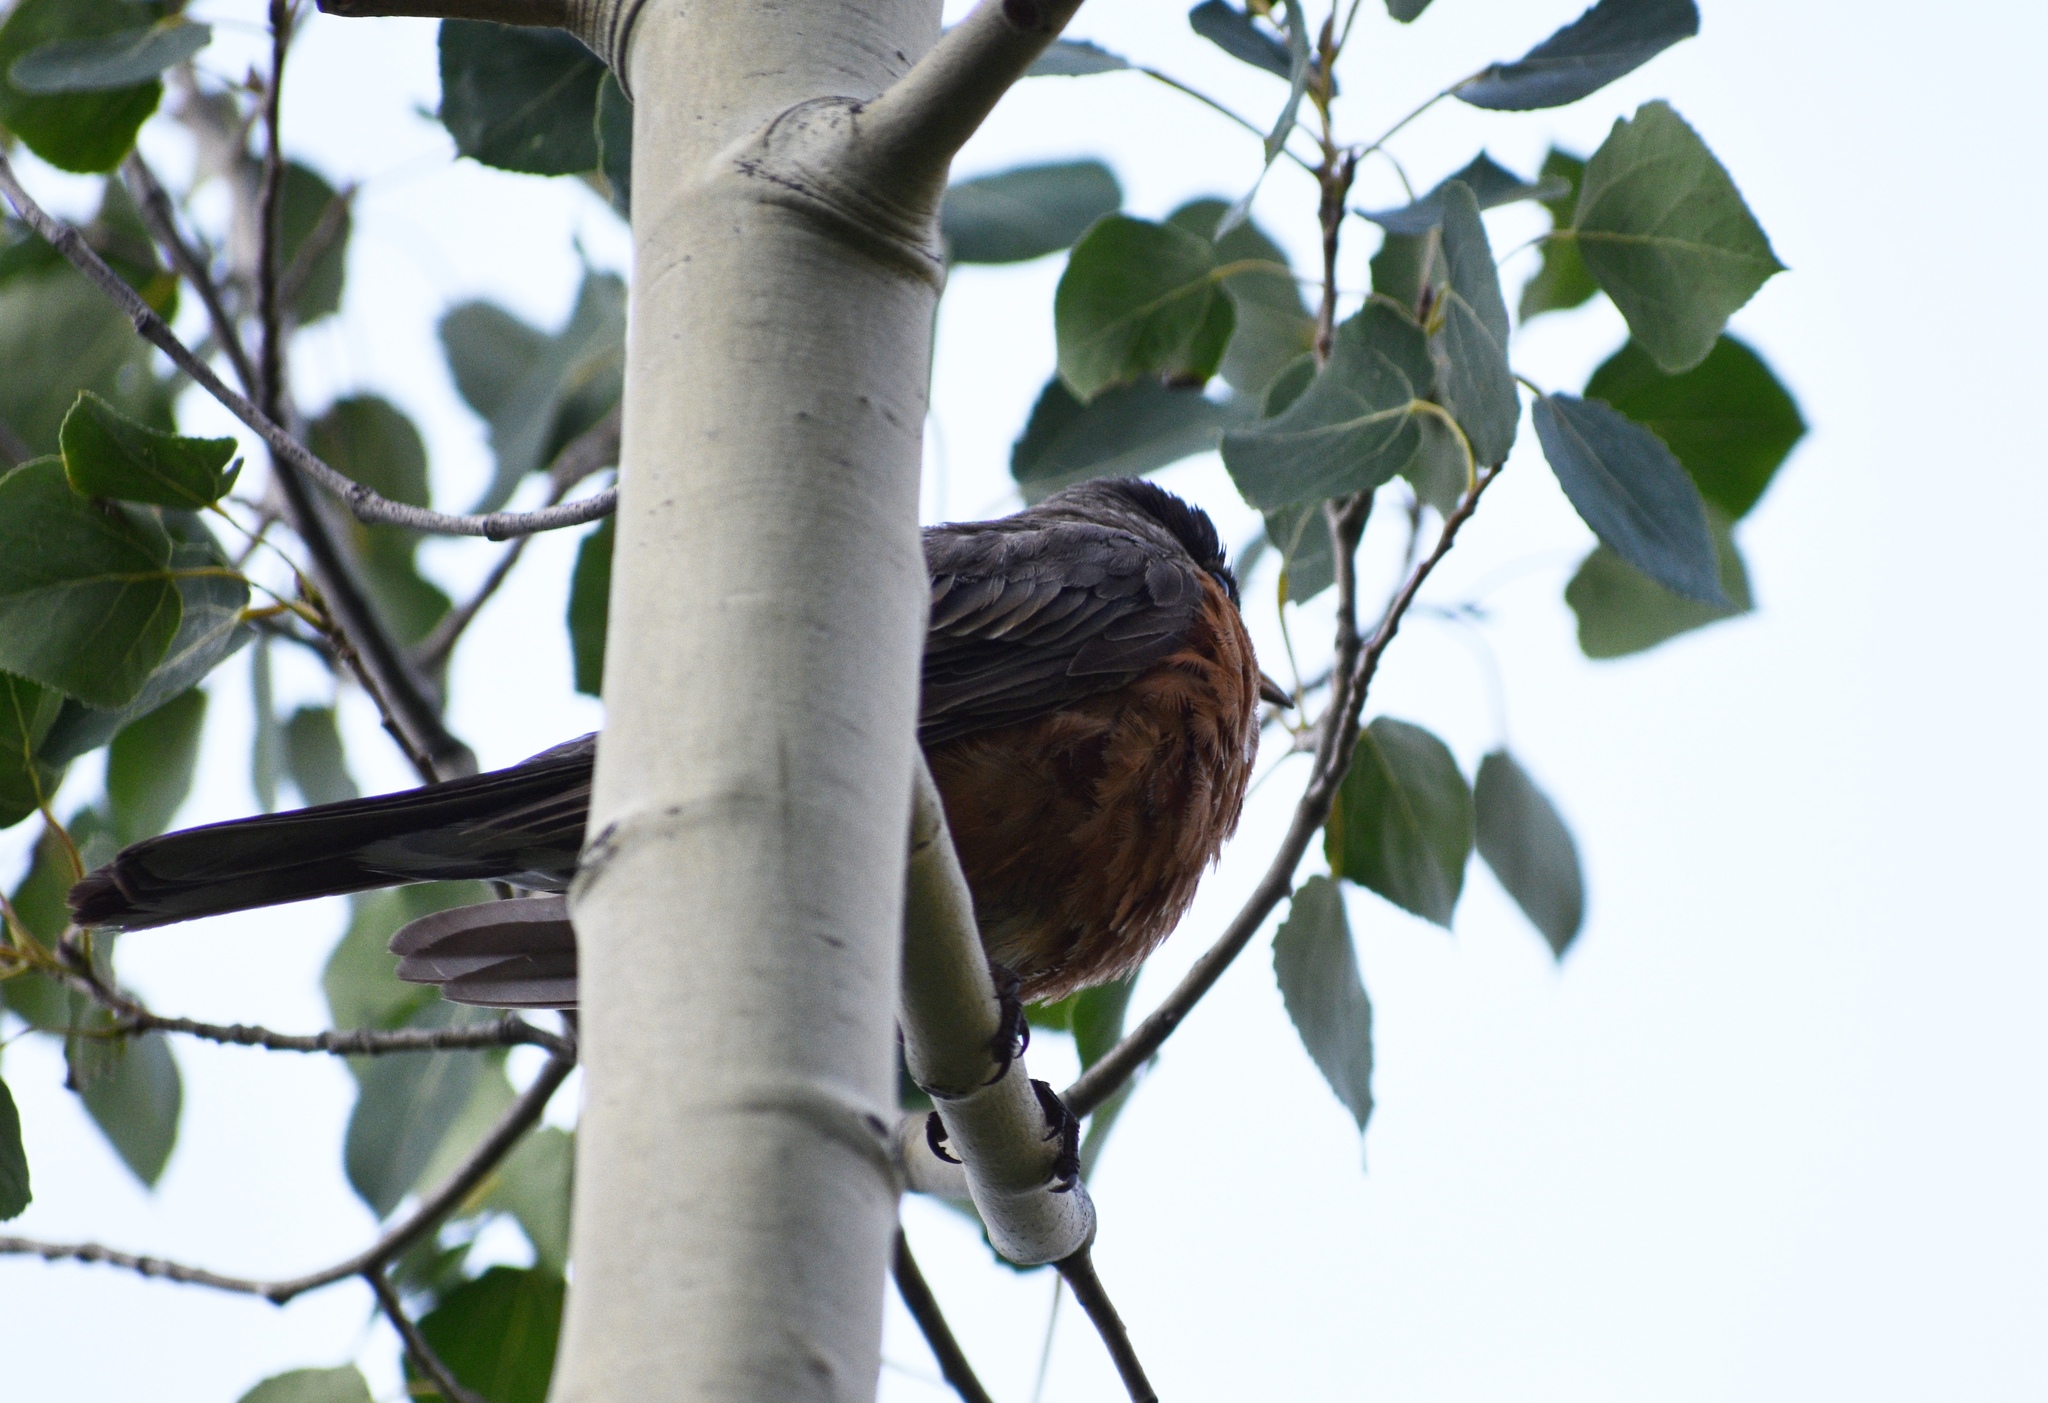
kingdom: Animalia
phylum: Chordata
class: Aves
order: Passeriformes
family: Turdidae
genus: Turdus
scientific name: Turdus migratorius
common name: American robin
